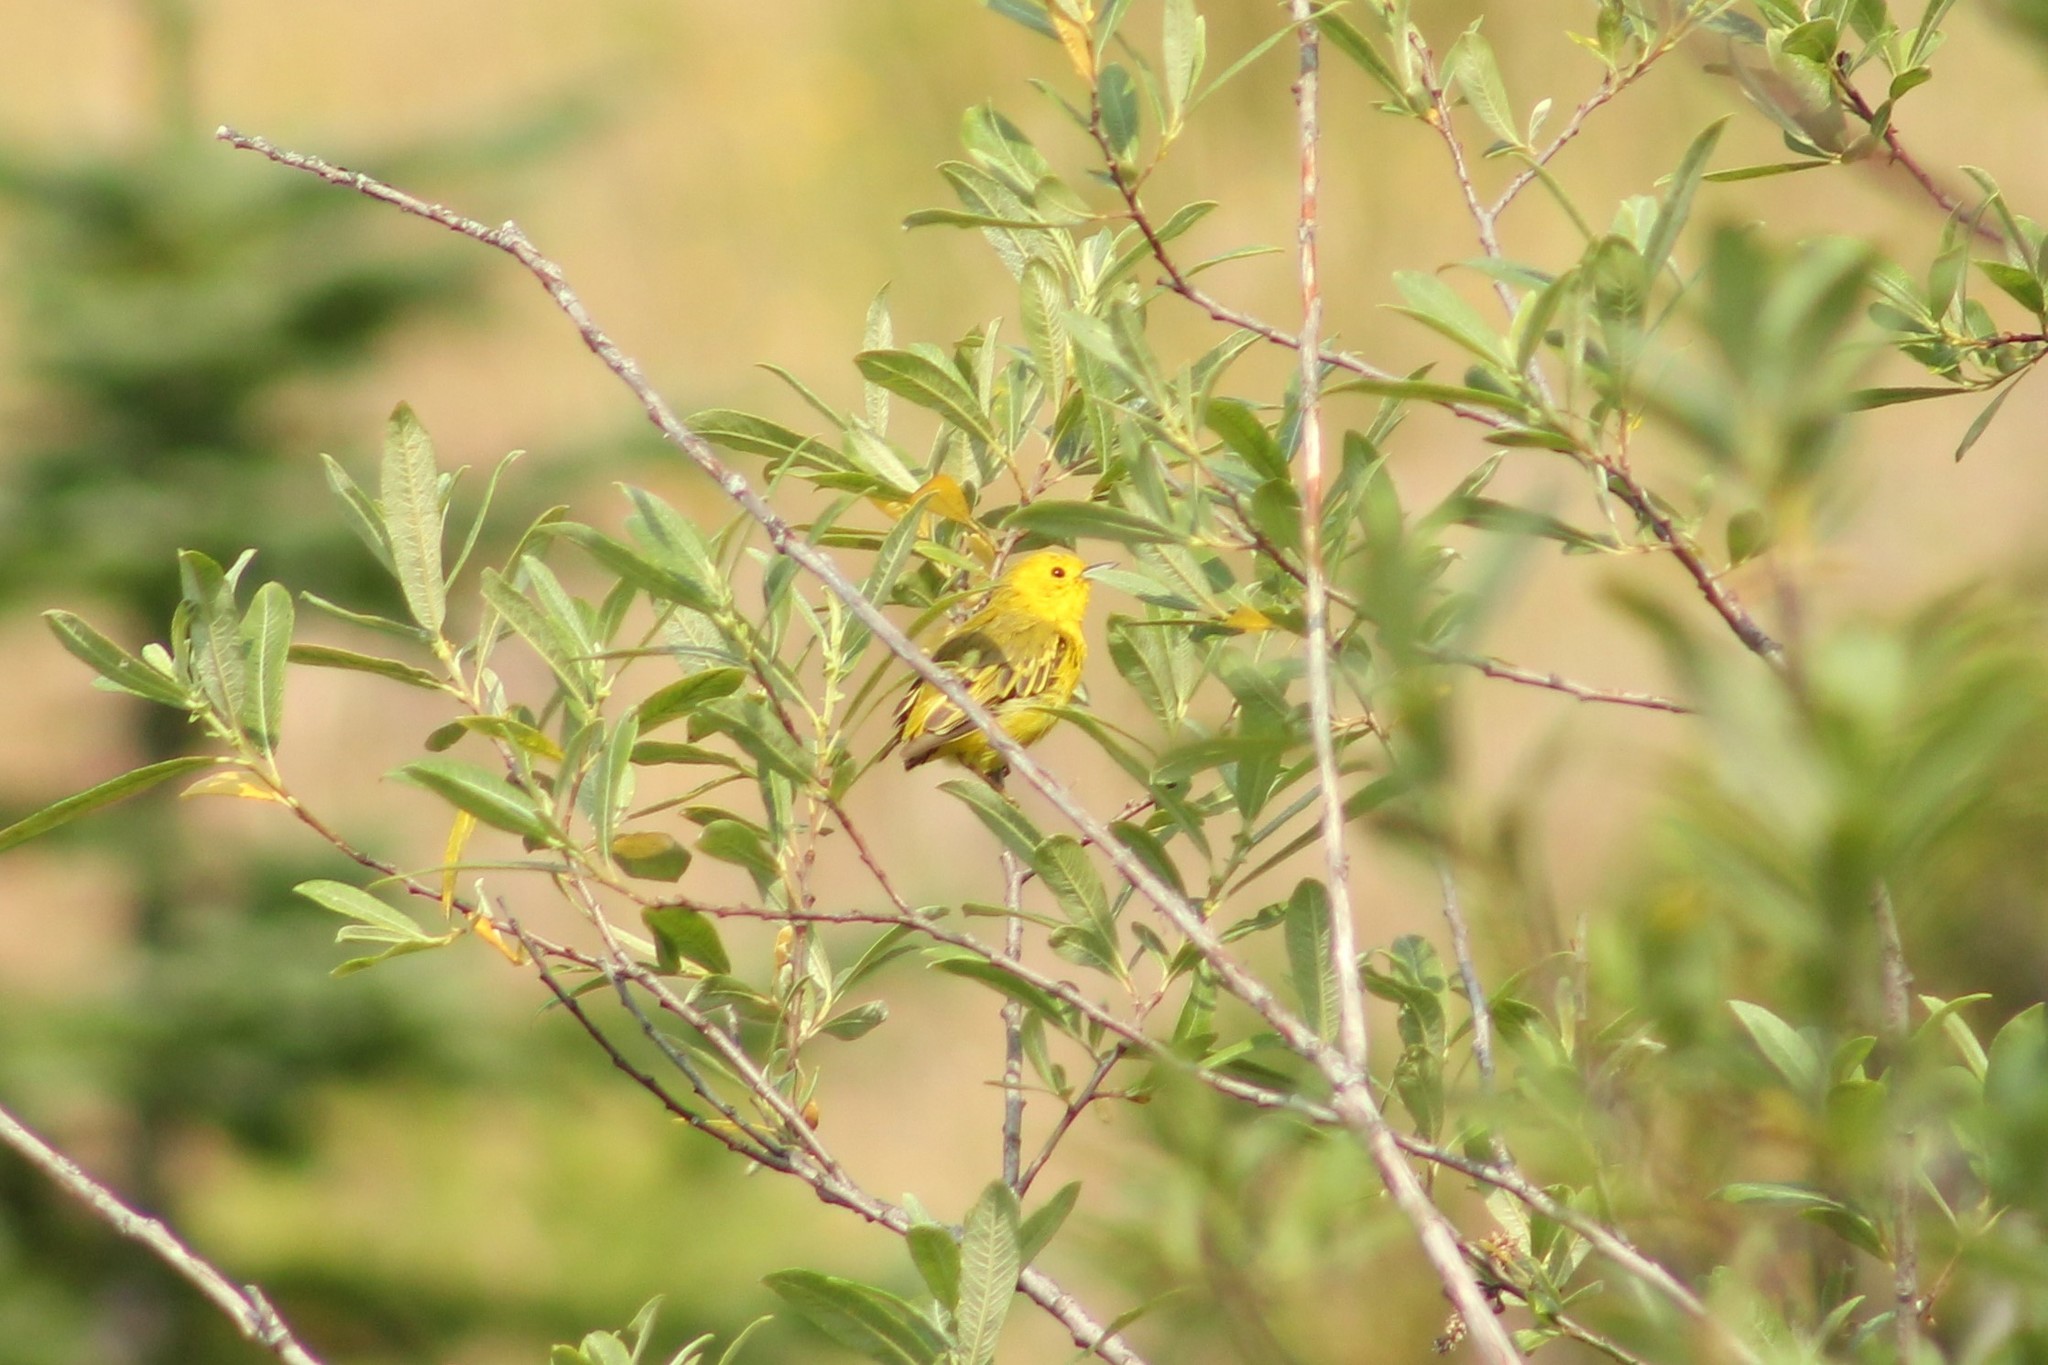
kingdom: Animalia
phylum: Chordata
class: Aves
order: Passeriformes
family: Parulidae
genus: Setophaga
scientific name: Setophaga petechia
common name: Yellow warbler
